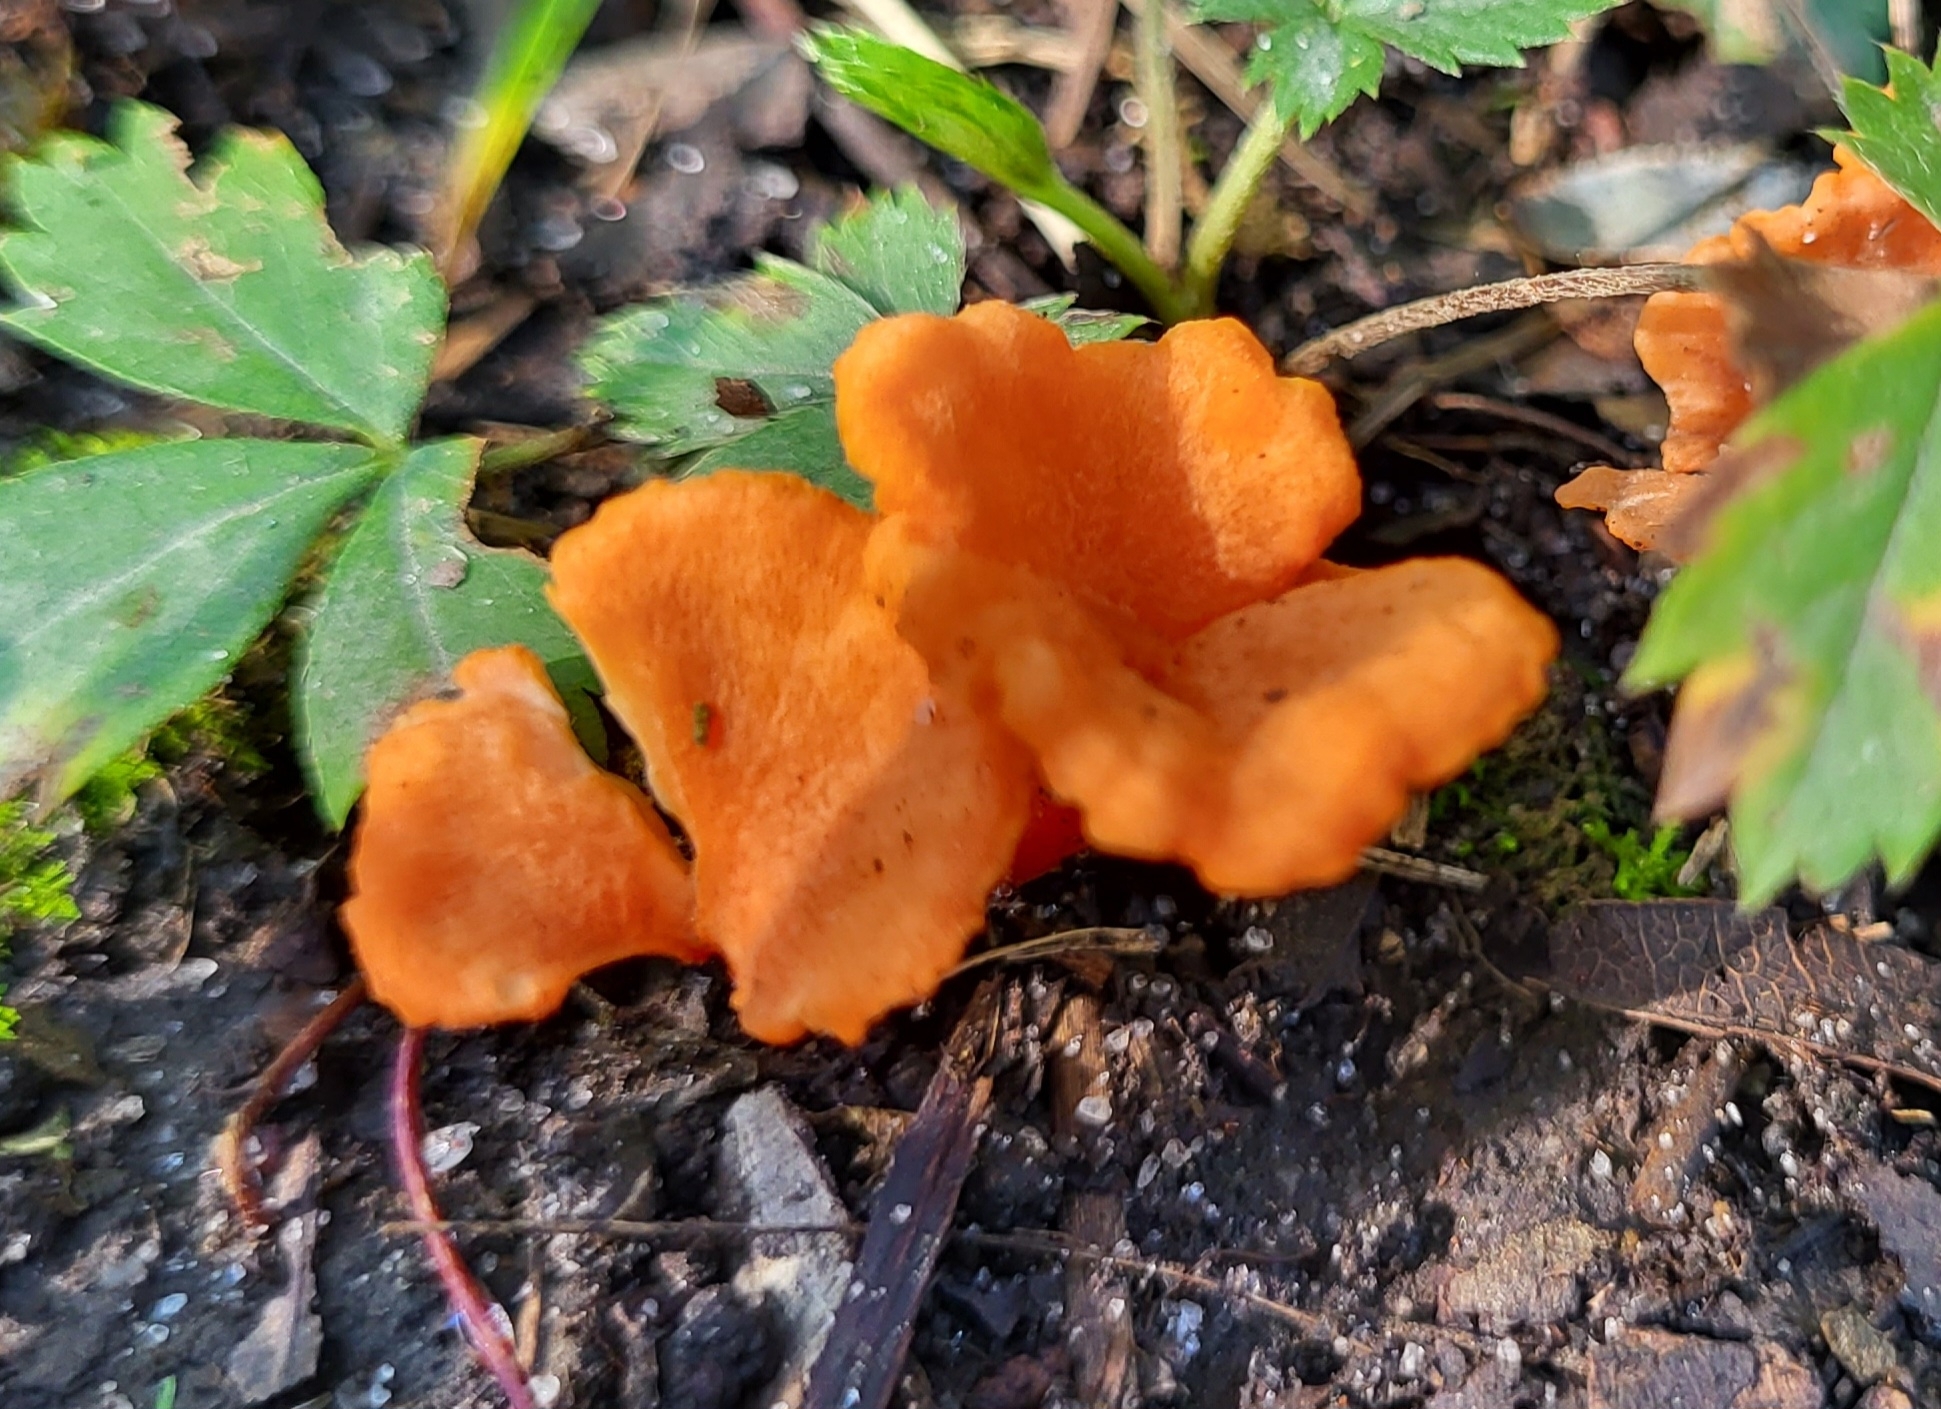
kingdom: Fungi
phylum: Basidiomycota
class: Agaricomycetes
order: Cantharellales
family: Hydnaceae
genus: Cantharellus
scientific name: Cantharellus cinnabarinus
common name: Cinnabar chanterelle
